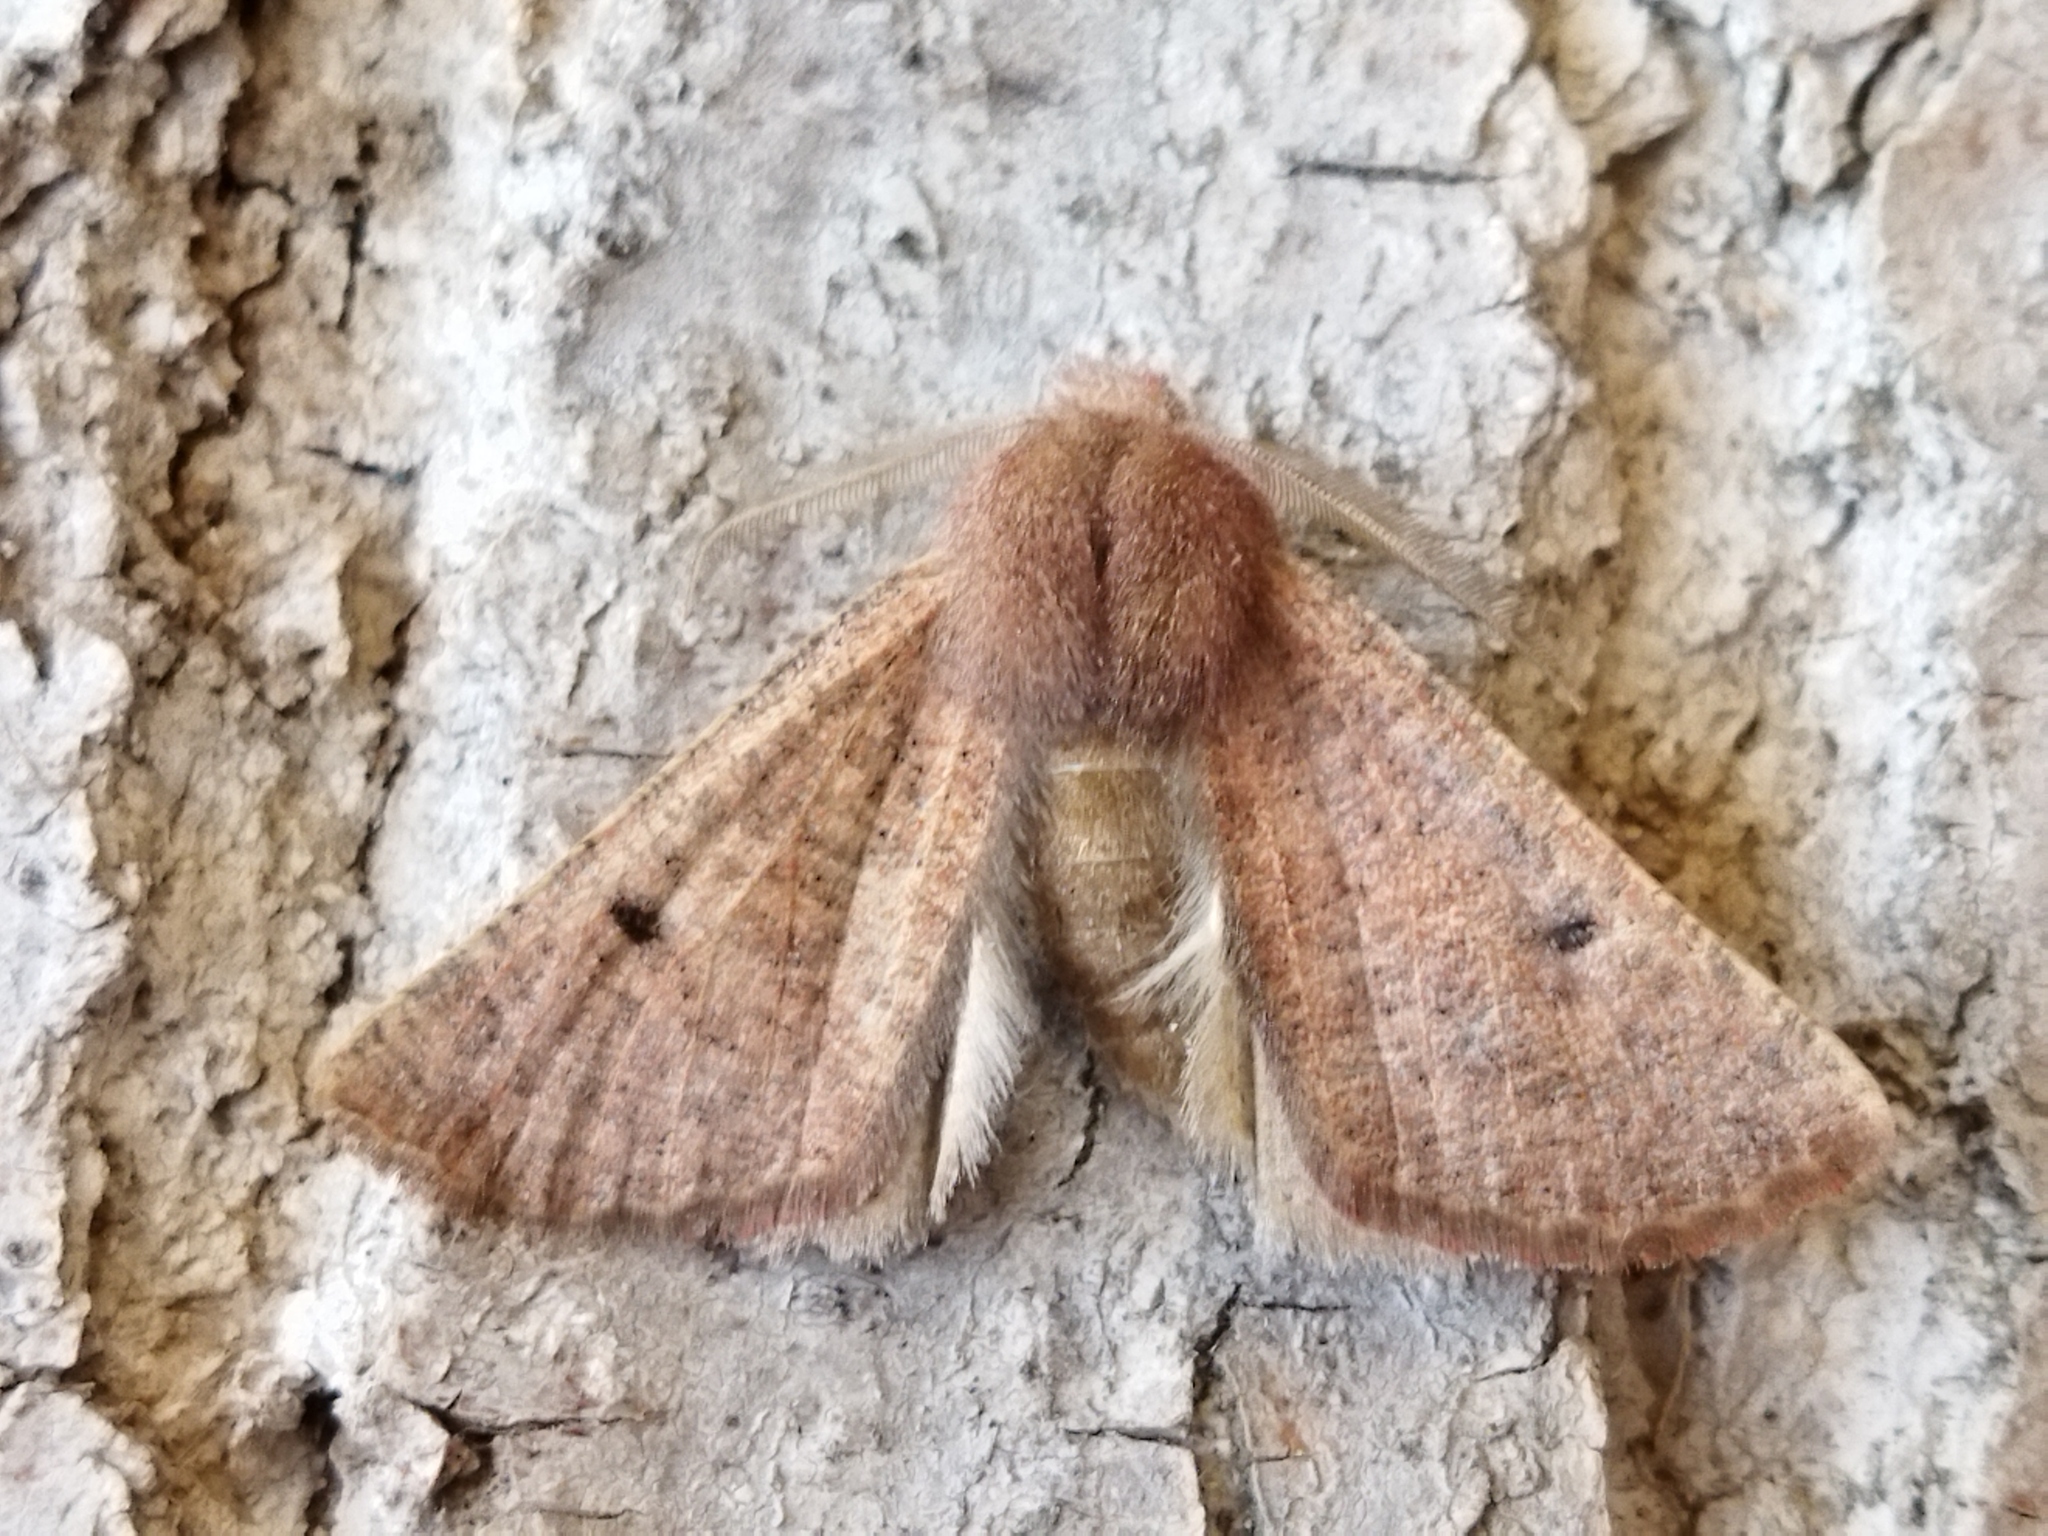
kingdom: Animalia
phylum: Arthropoda
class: Insecta
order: Lepidoptera
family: Geometridae
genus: Dasycorsa
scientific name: Dasycorsa modesta
